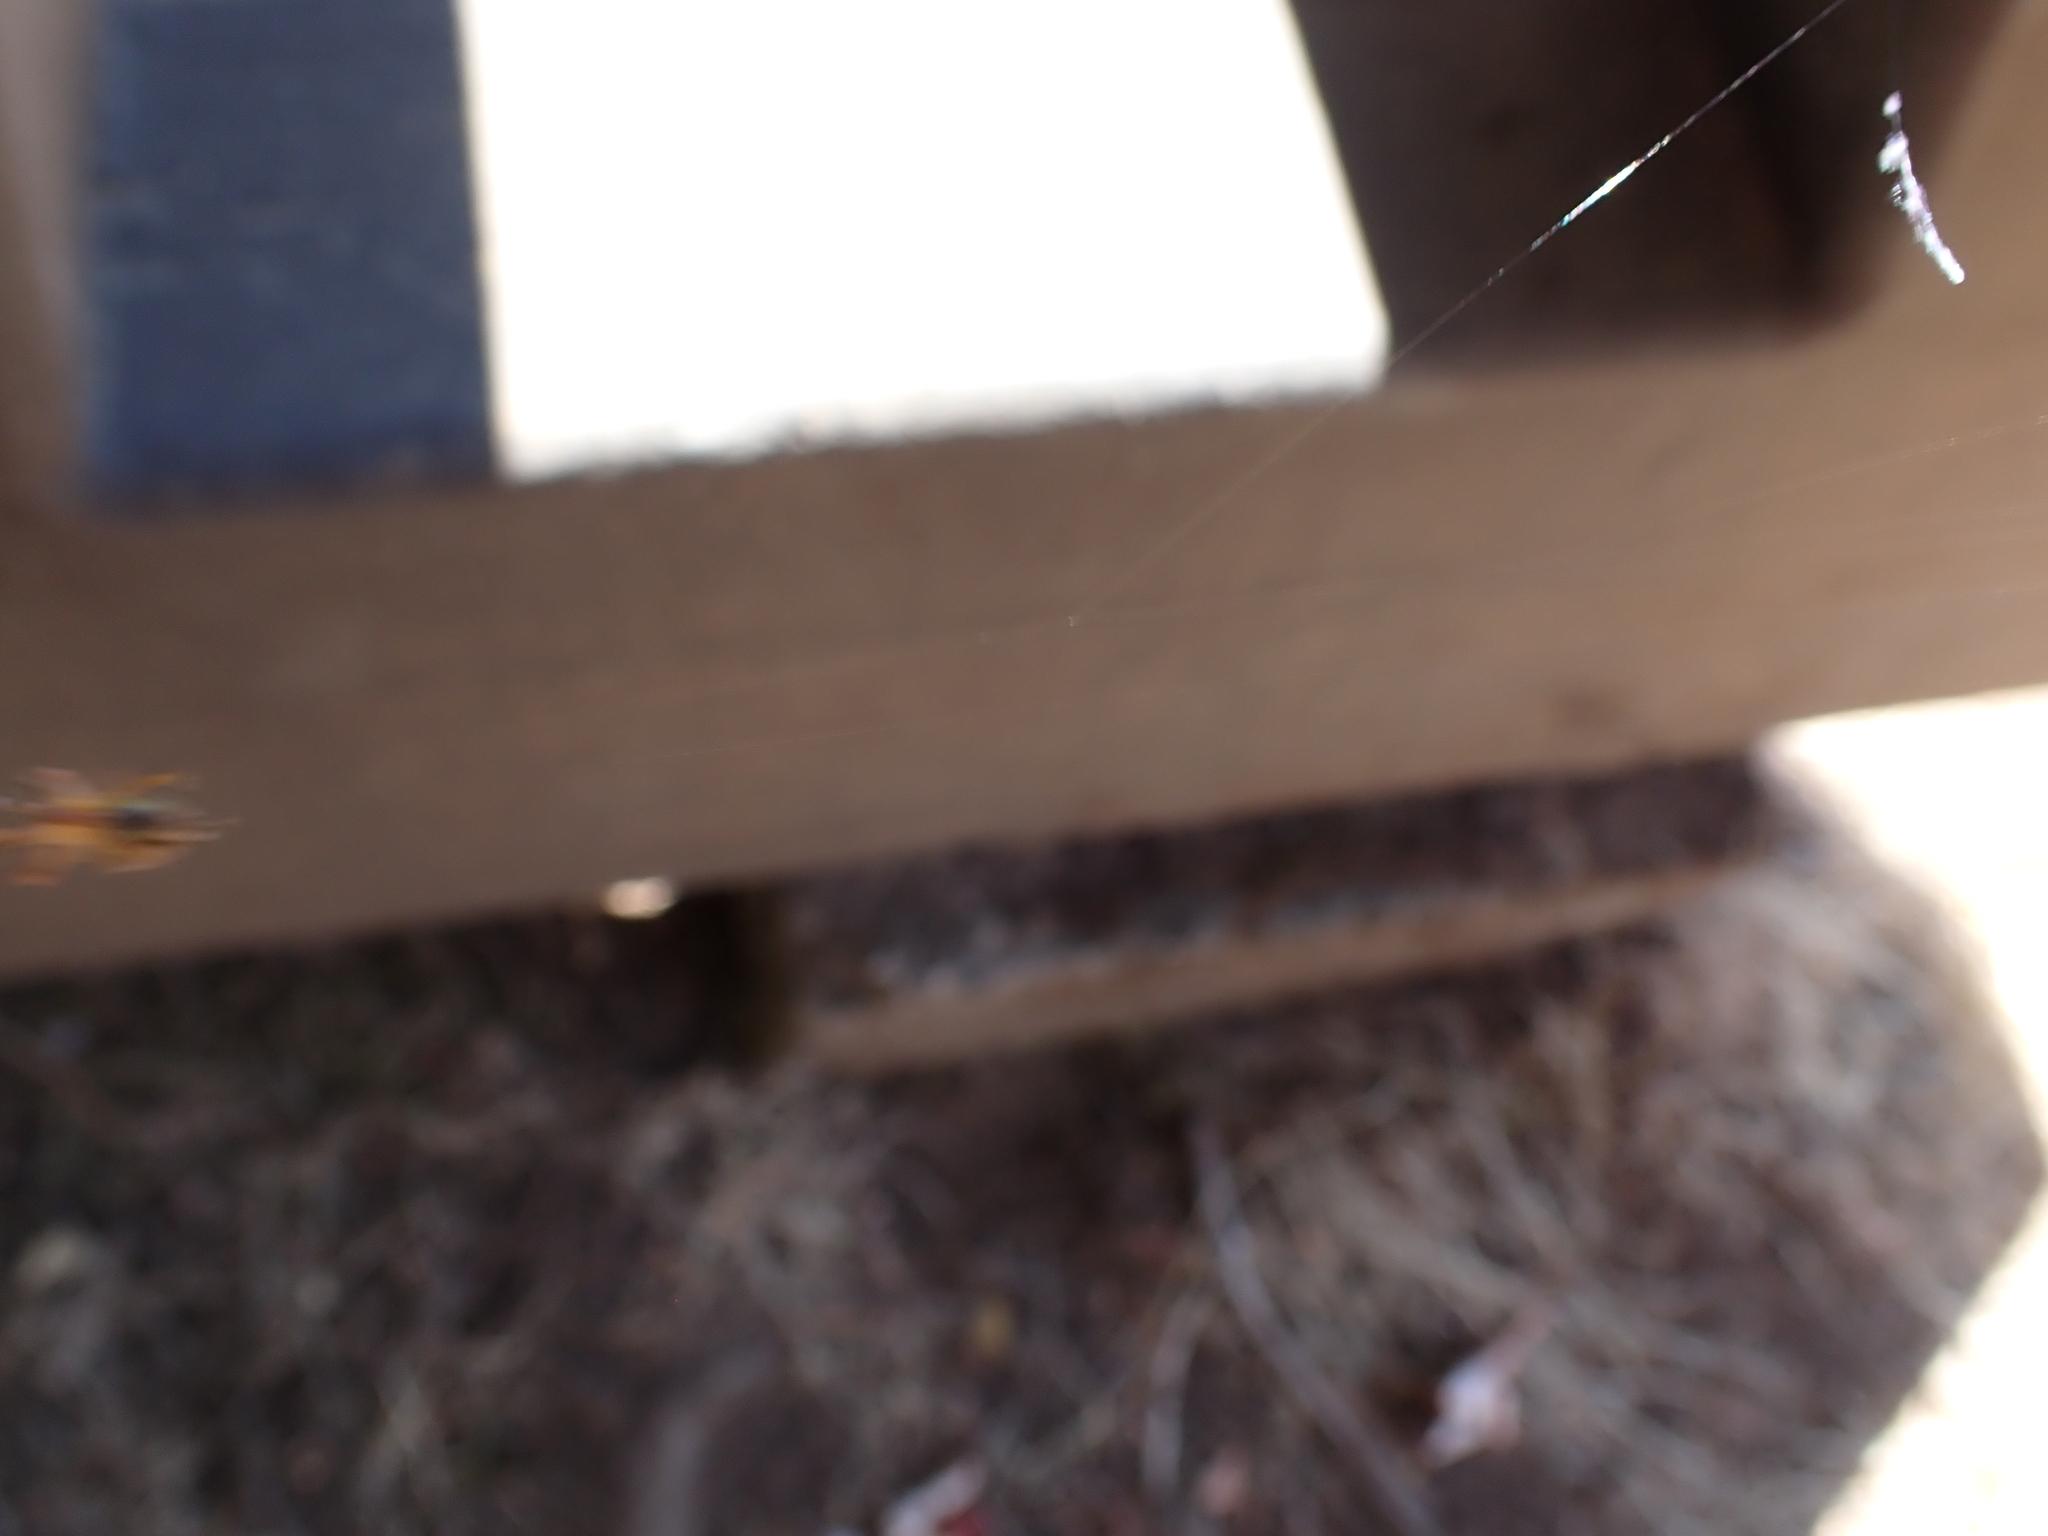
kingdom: Animalia
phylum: Arthropoda
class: Arachnida
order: Araneae
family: Araneidae
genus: Araneus
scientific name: Araneus diadematus
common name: Cross orbweaver
